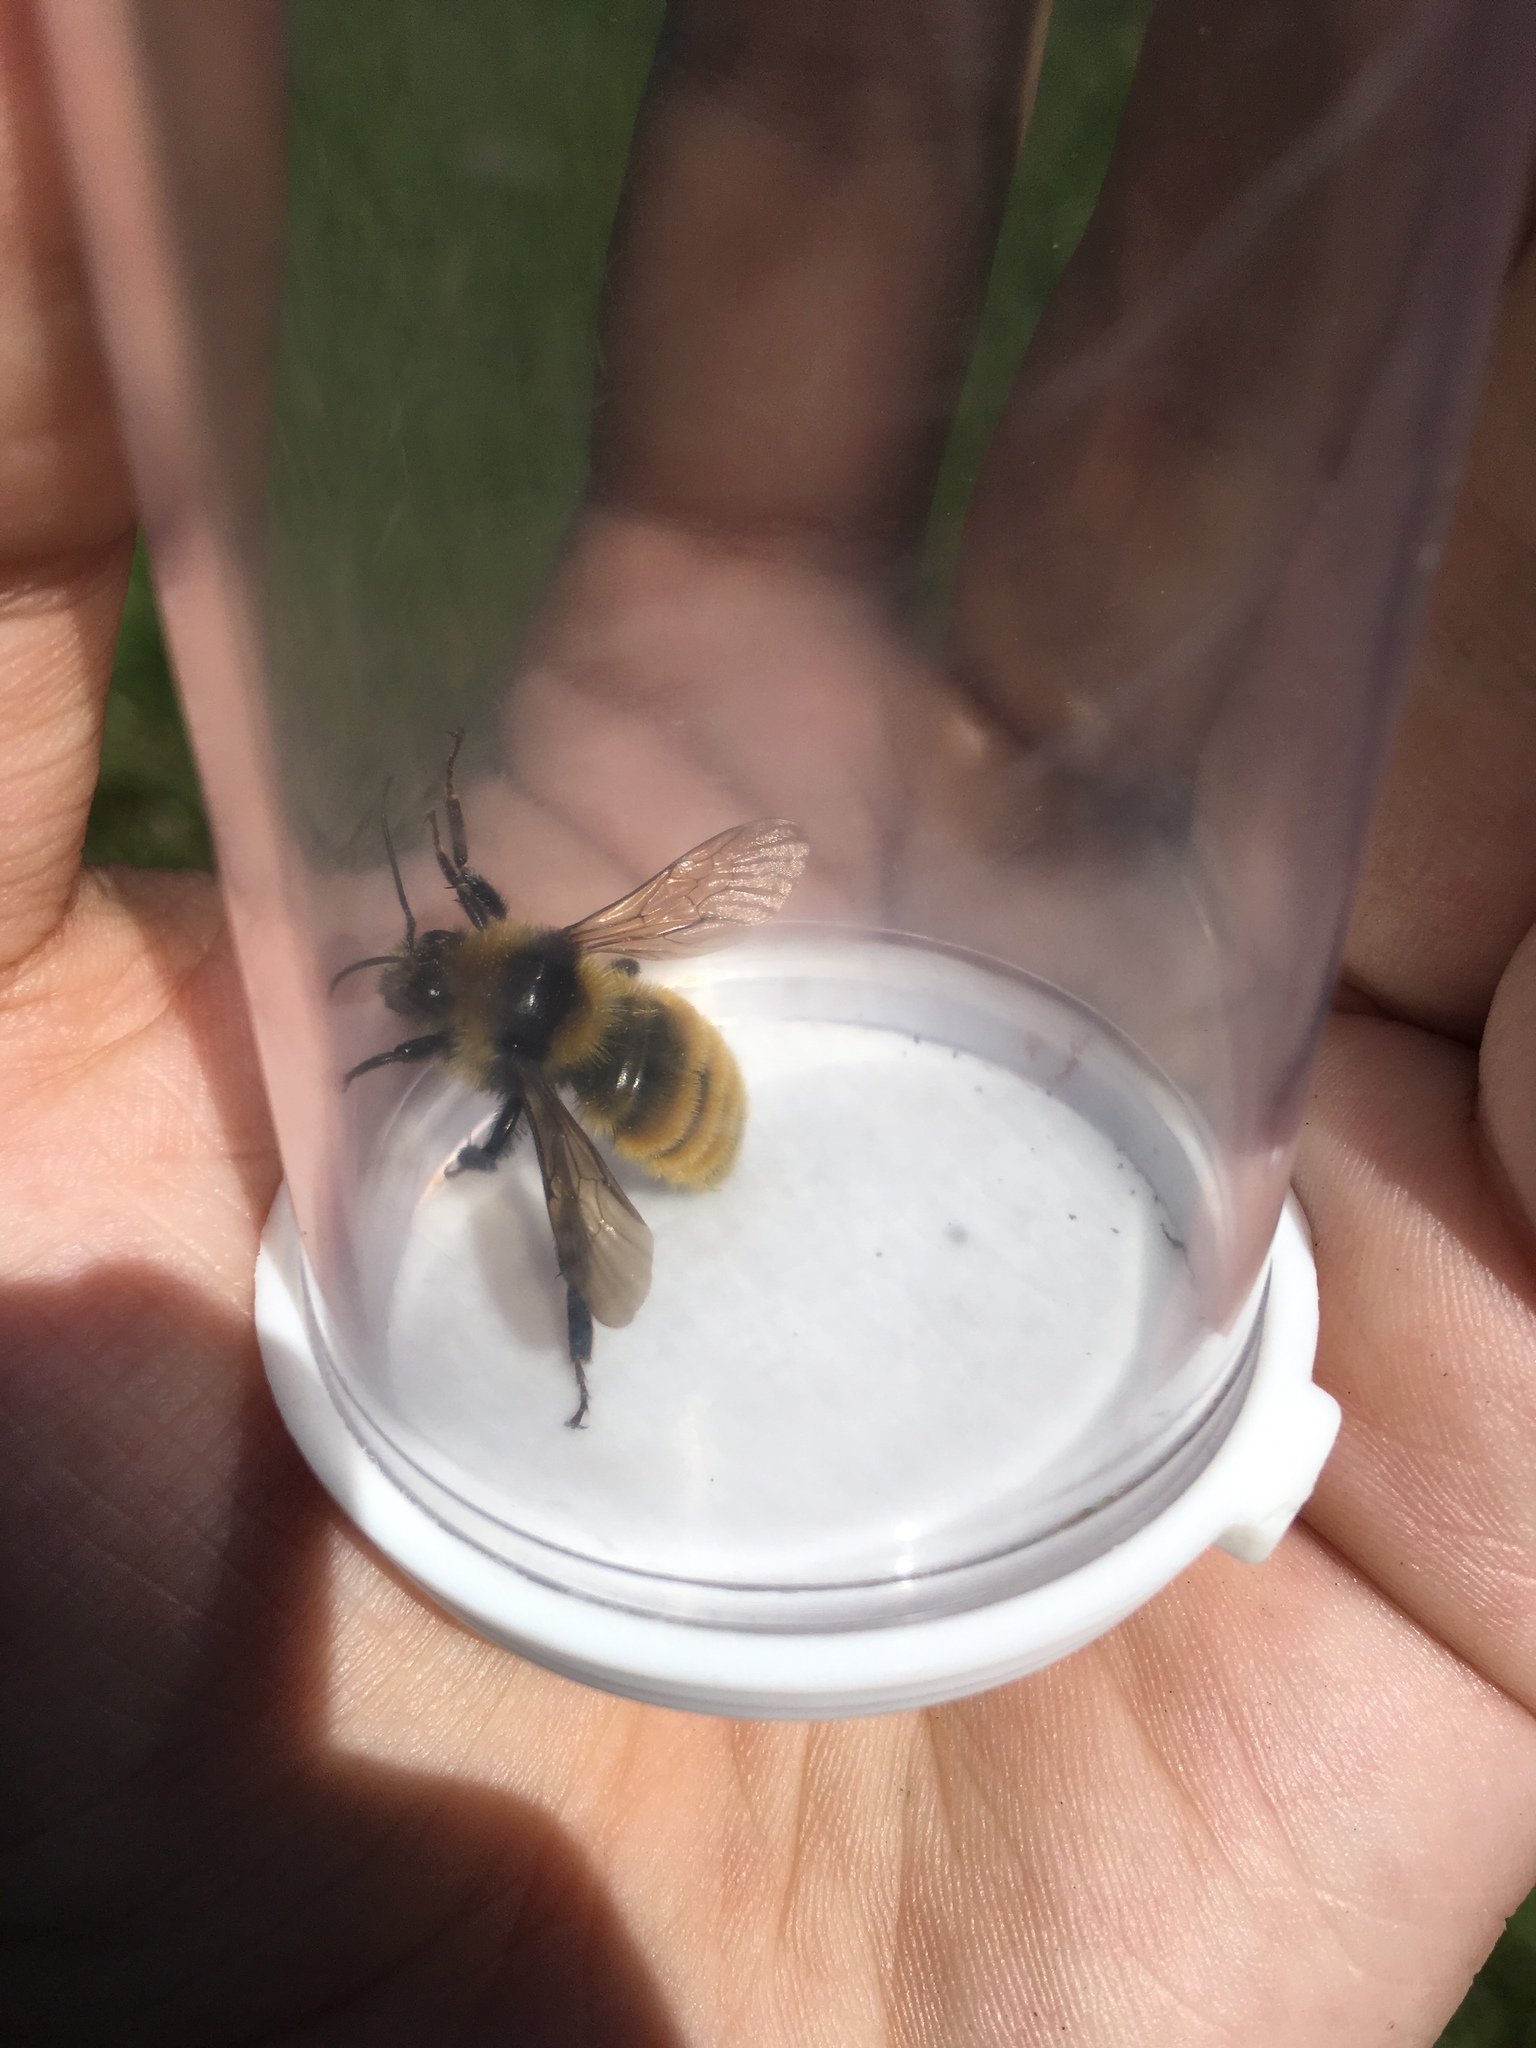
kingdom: Animalia
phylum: Arthropoda
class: Insecta
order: Hymenoptera
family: Apidae
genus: Bombus
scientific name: Bombus borealis
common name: Northern amber bumble bee
